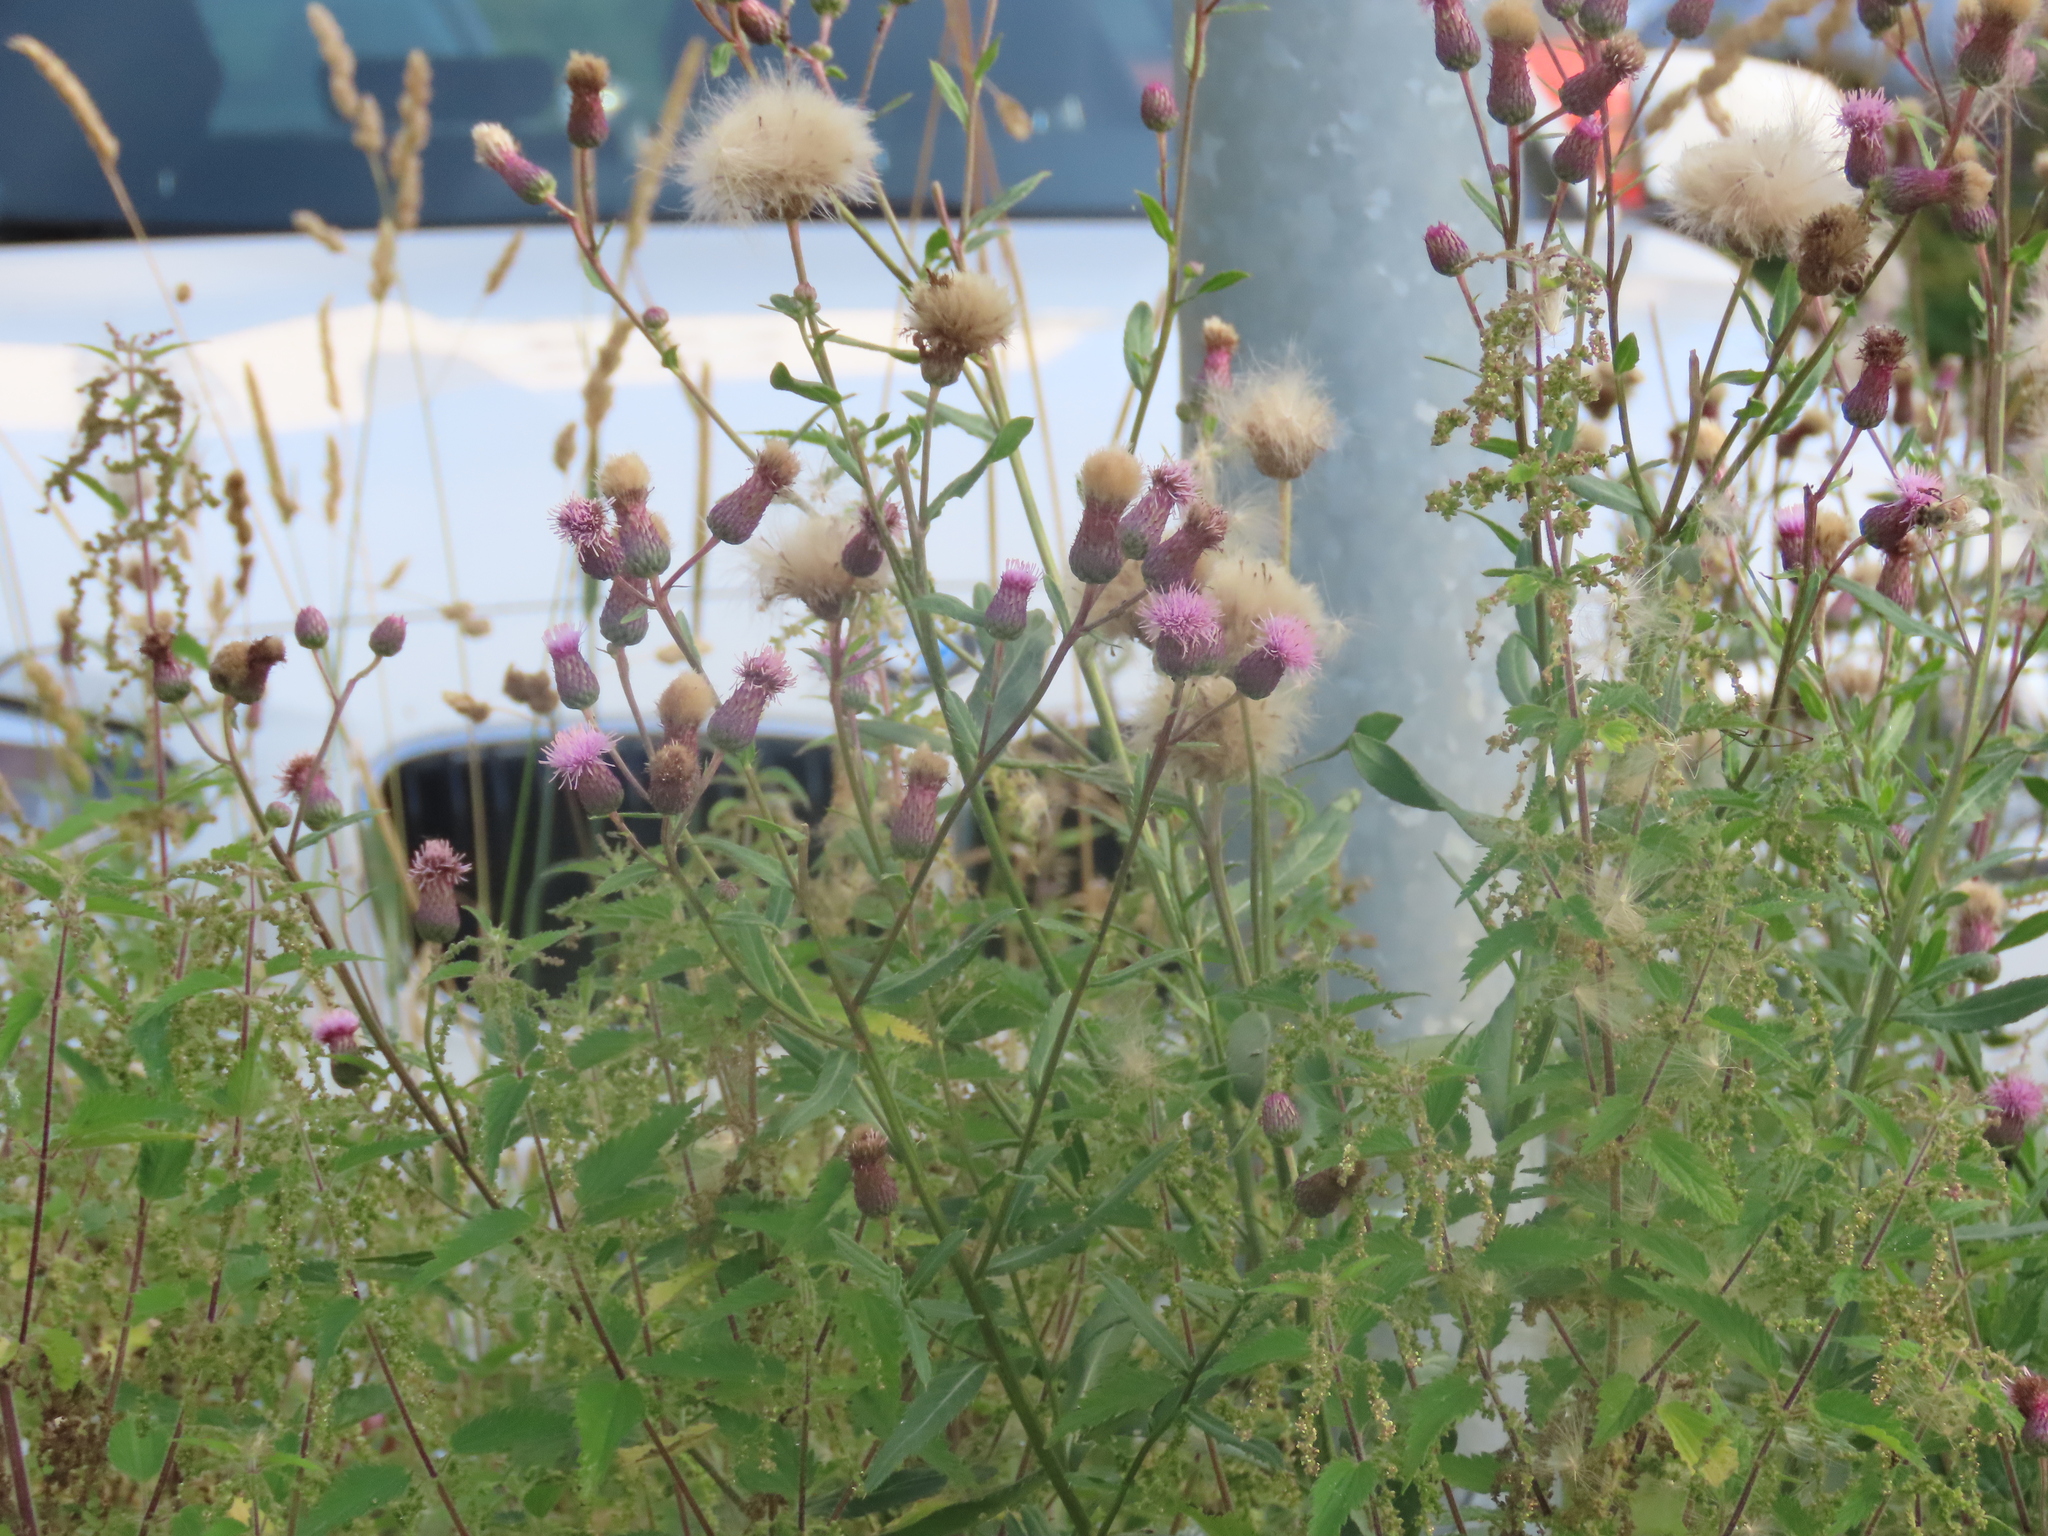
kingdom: Plantae
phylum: Tracheophyta
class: Magnoliopsida
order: Asterales
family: Asteraceae
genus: Cirsium
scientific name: Cirsium arvense
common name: Creeping thistle
